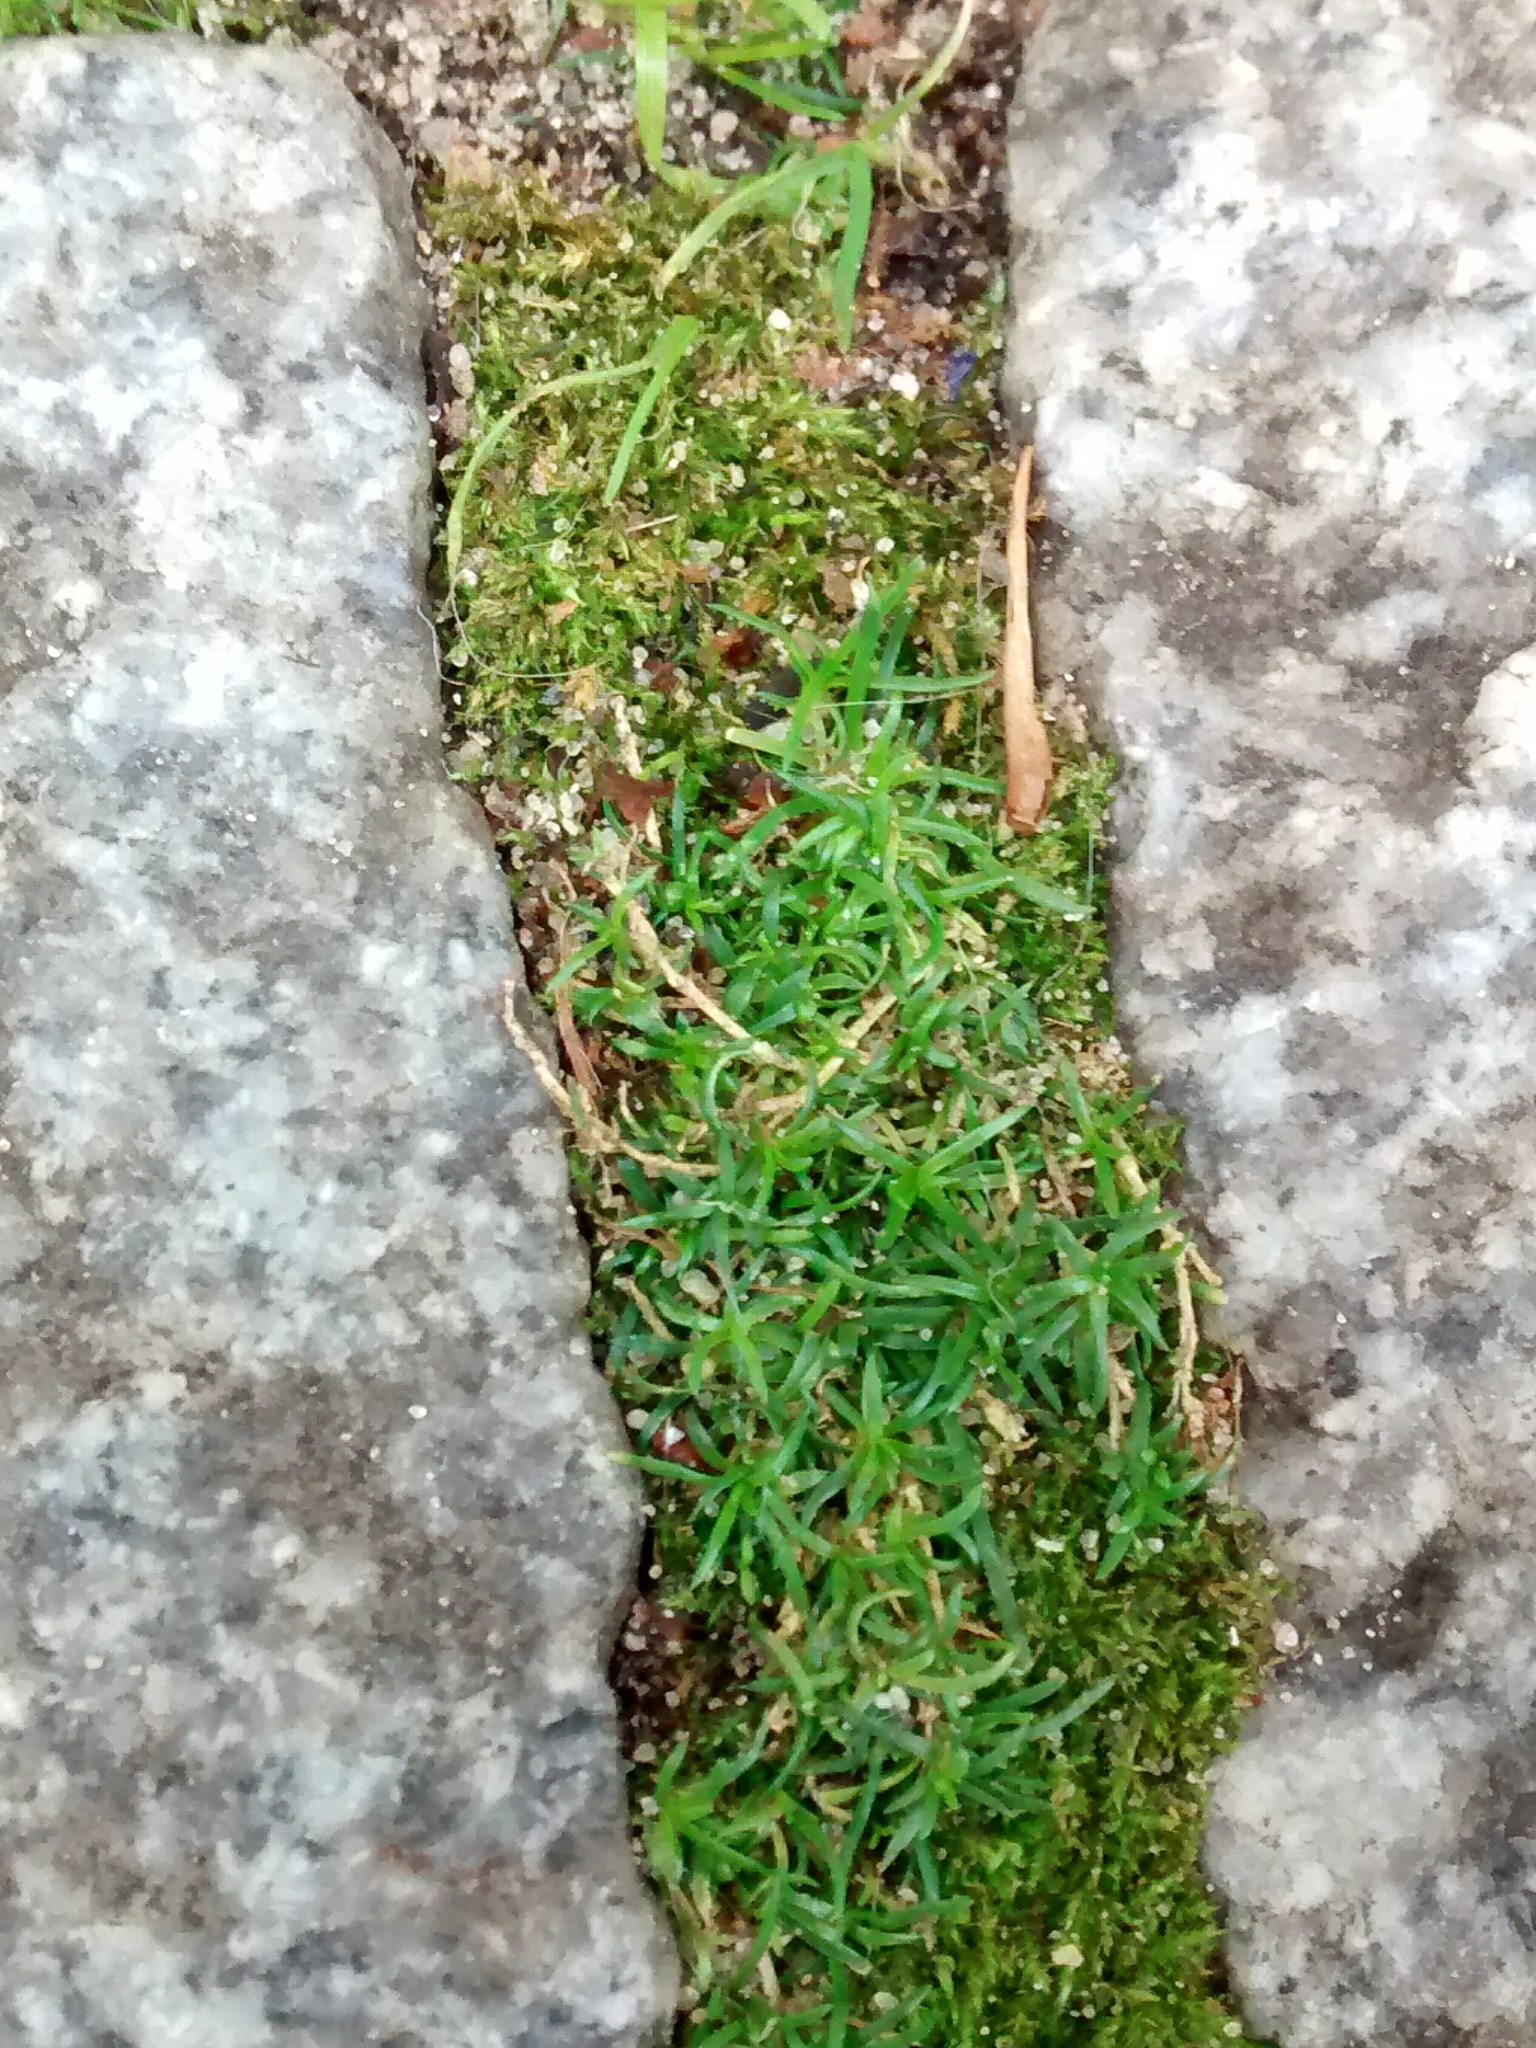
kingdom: Plantae
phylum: Tracheophyta
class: Magnoliopsida
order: Caryophyllales
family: Caryophyllaceae
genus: Sagina
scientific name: Sagina procumbens
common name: Procumbent pearlwort
